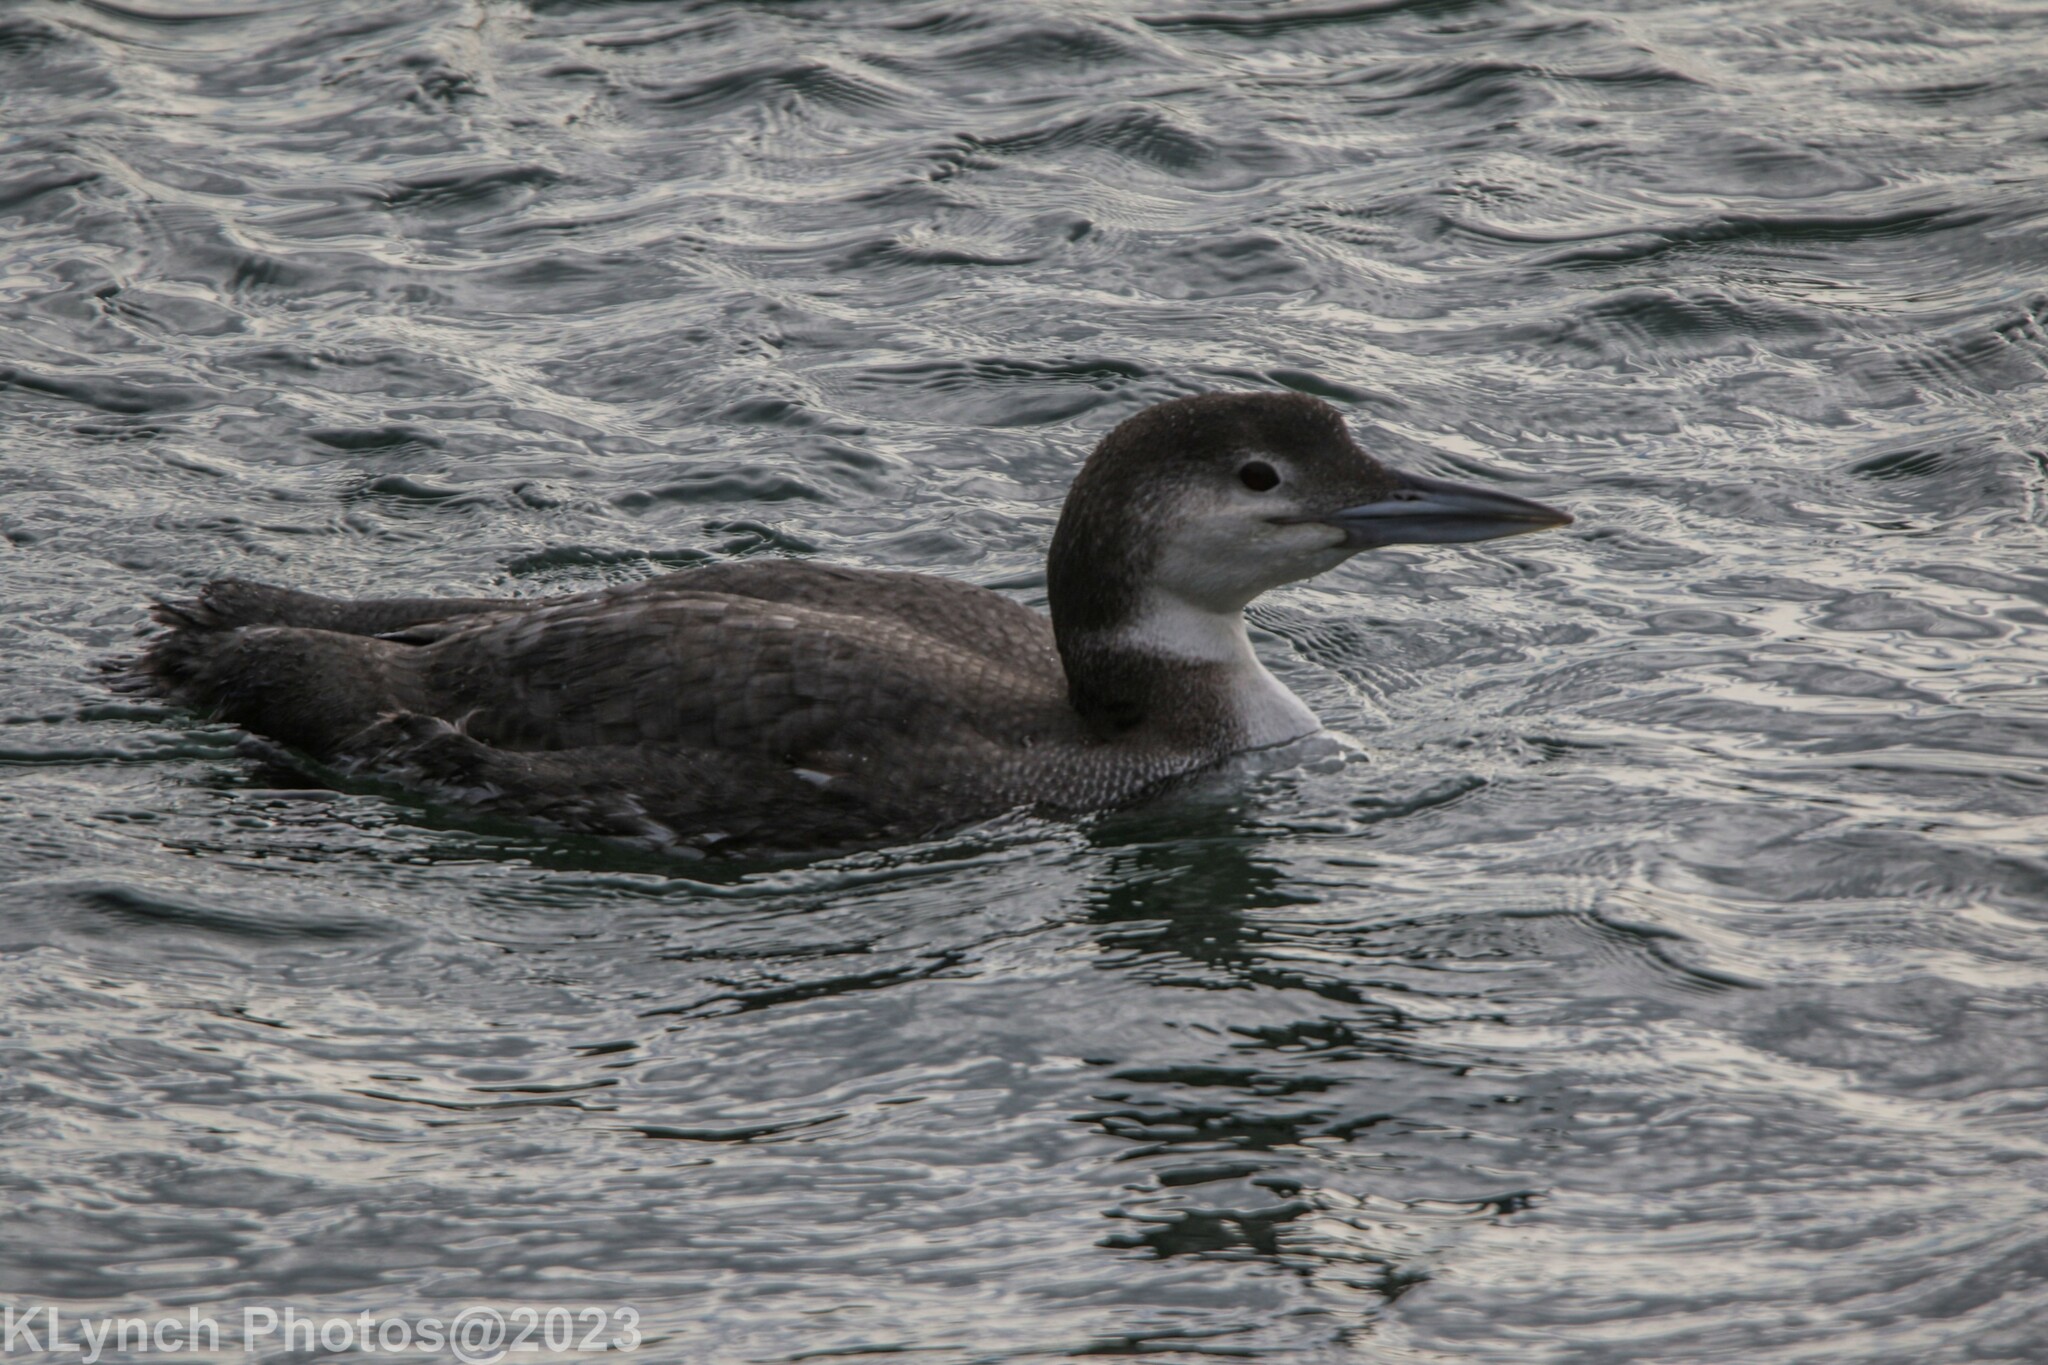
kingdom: Animalia
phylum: Chordata
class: Aves
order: Gaviiformes
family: Gaviidae
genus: Gavia
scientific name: Gavia immer
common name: Common loon
